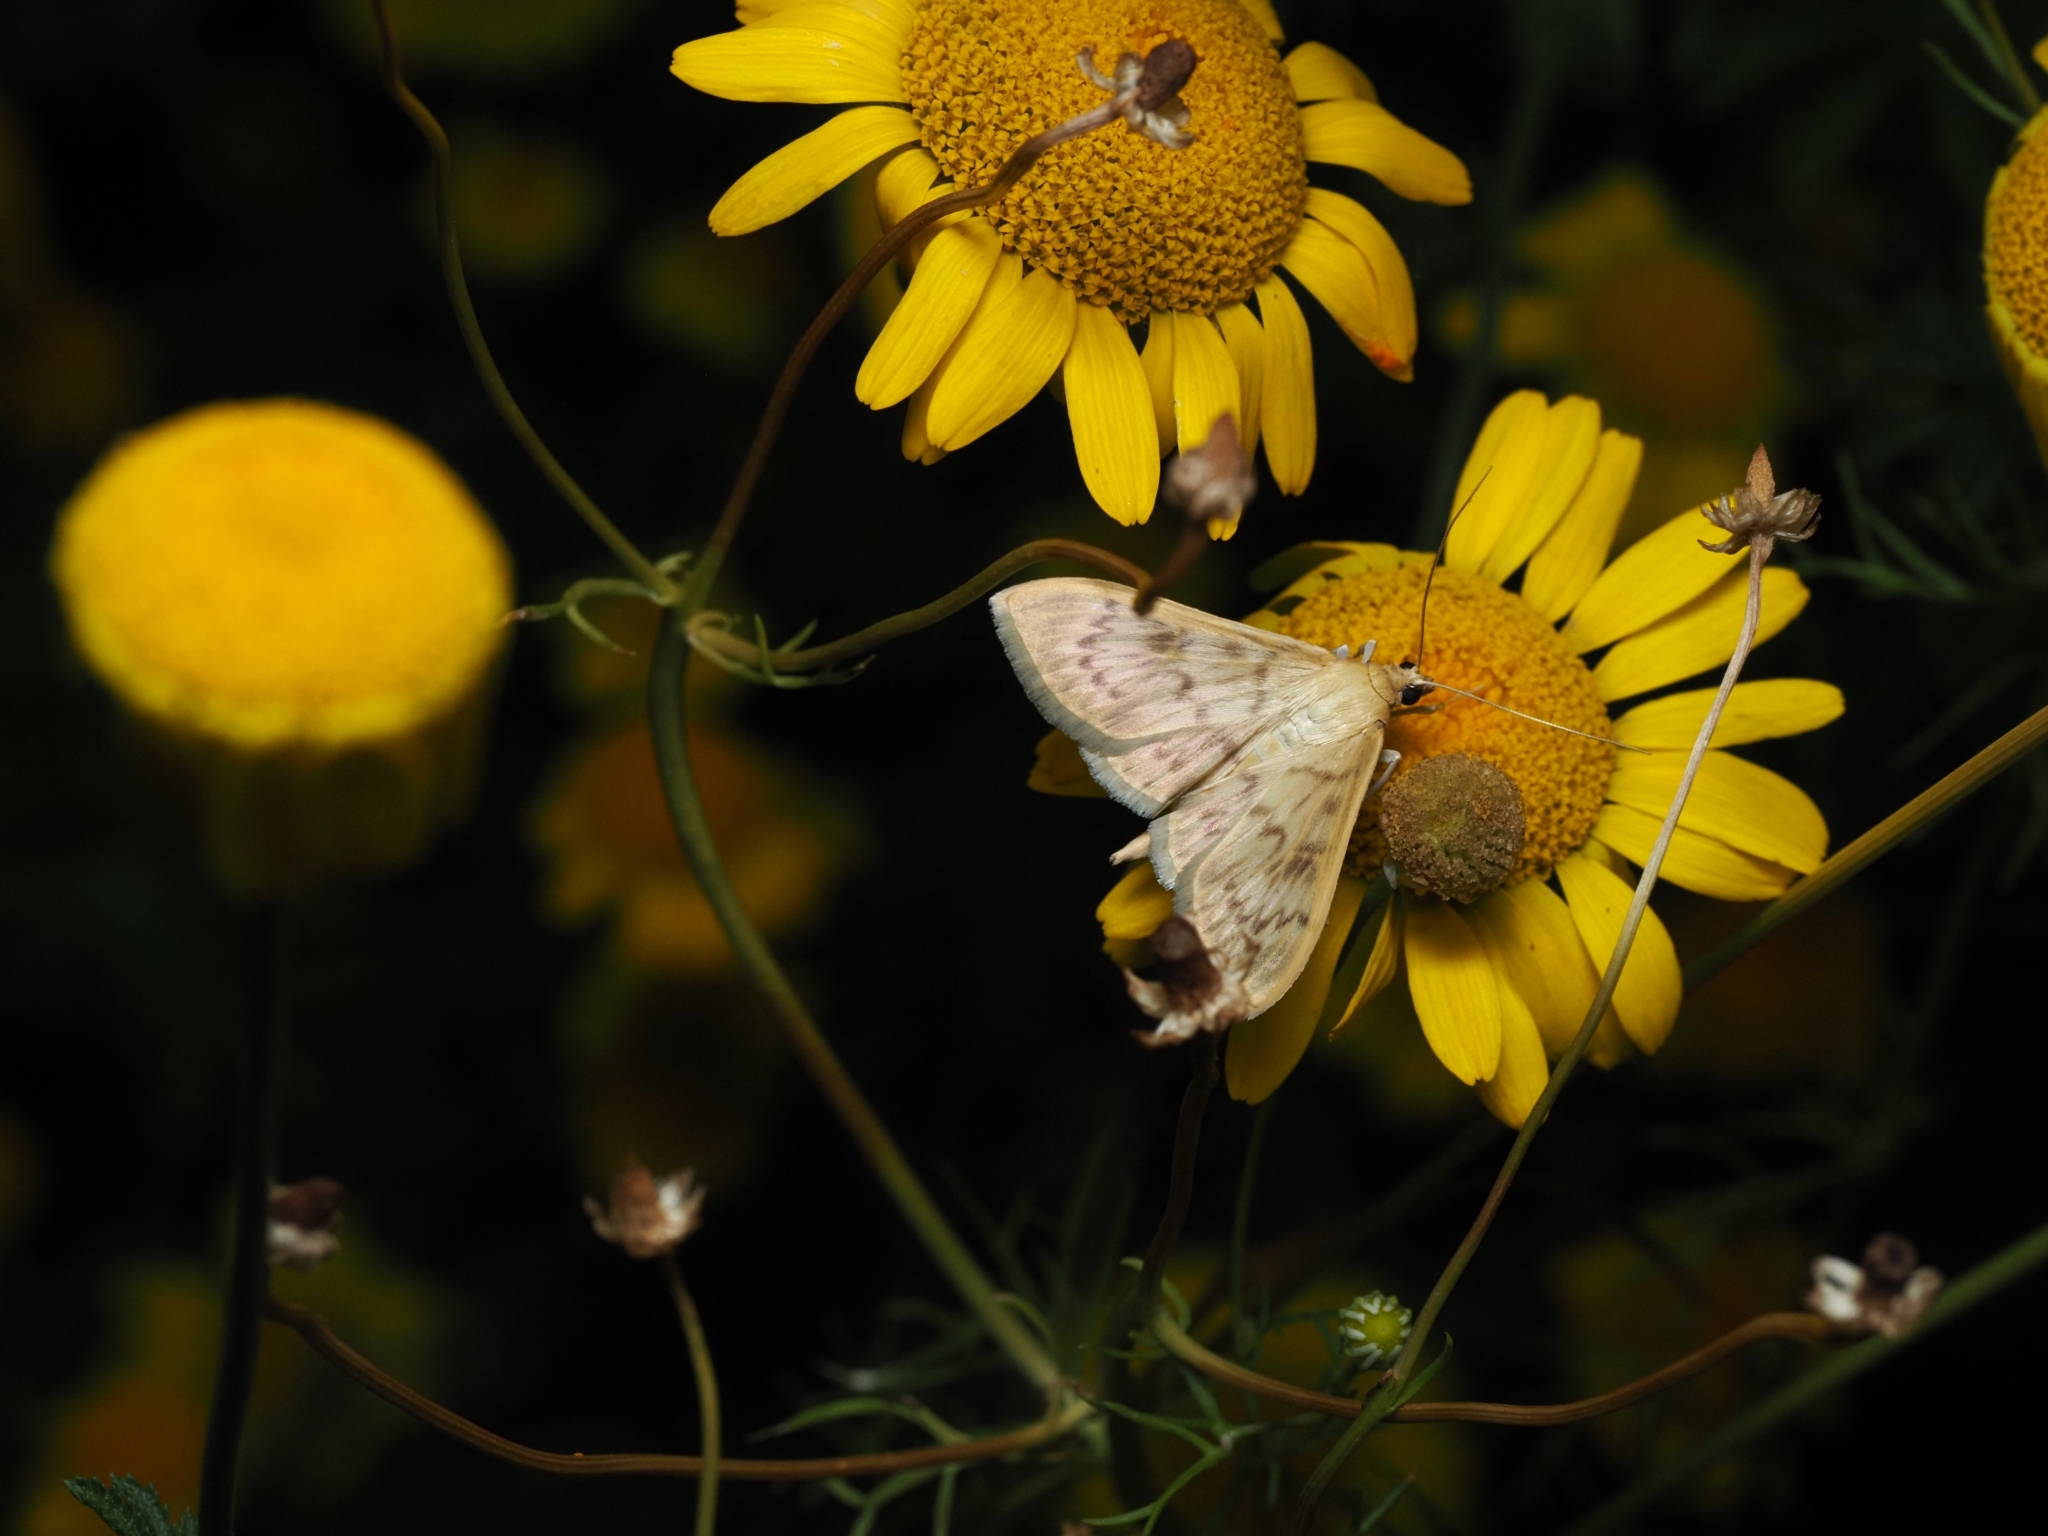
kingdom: Animalia
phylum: Arthropoda
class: Insecta
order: Lepidoptera
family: Crambidae
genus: Patania
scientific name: Patania ruralis
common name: Mother of pearl
